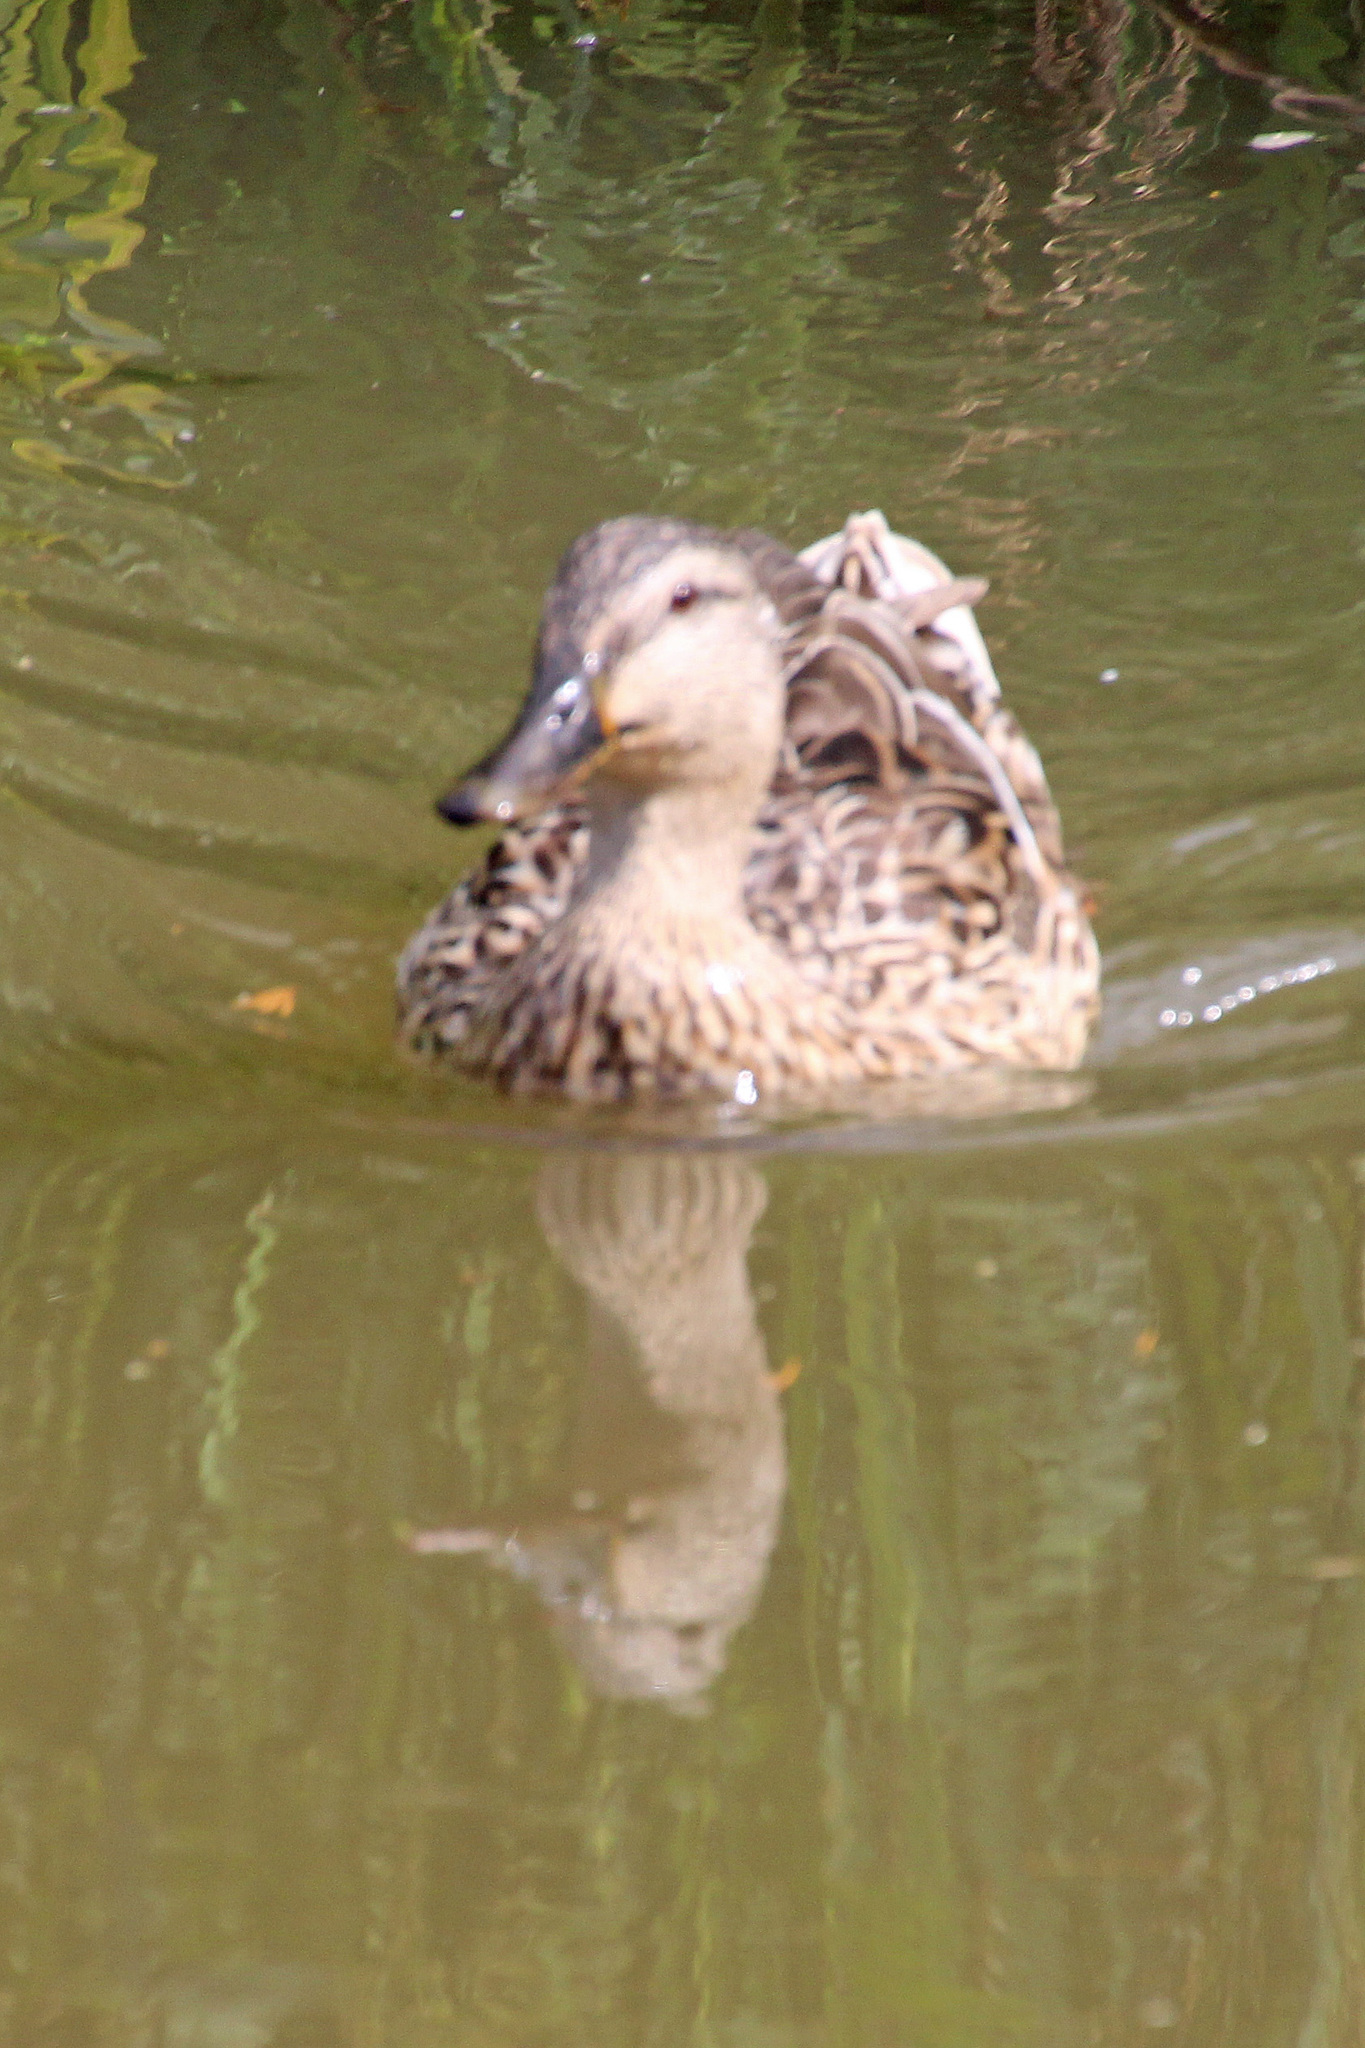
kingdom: Animalia
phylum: Chordata
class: Aves
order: Anseriformes
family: Anatidae
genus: Anas
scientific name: Anas platyrhynchos
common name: Mallard
